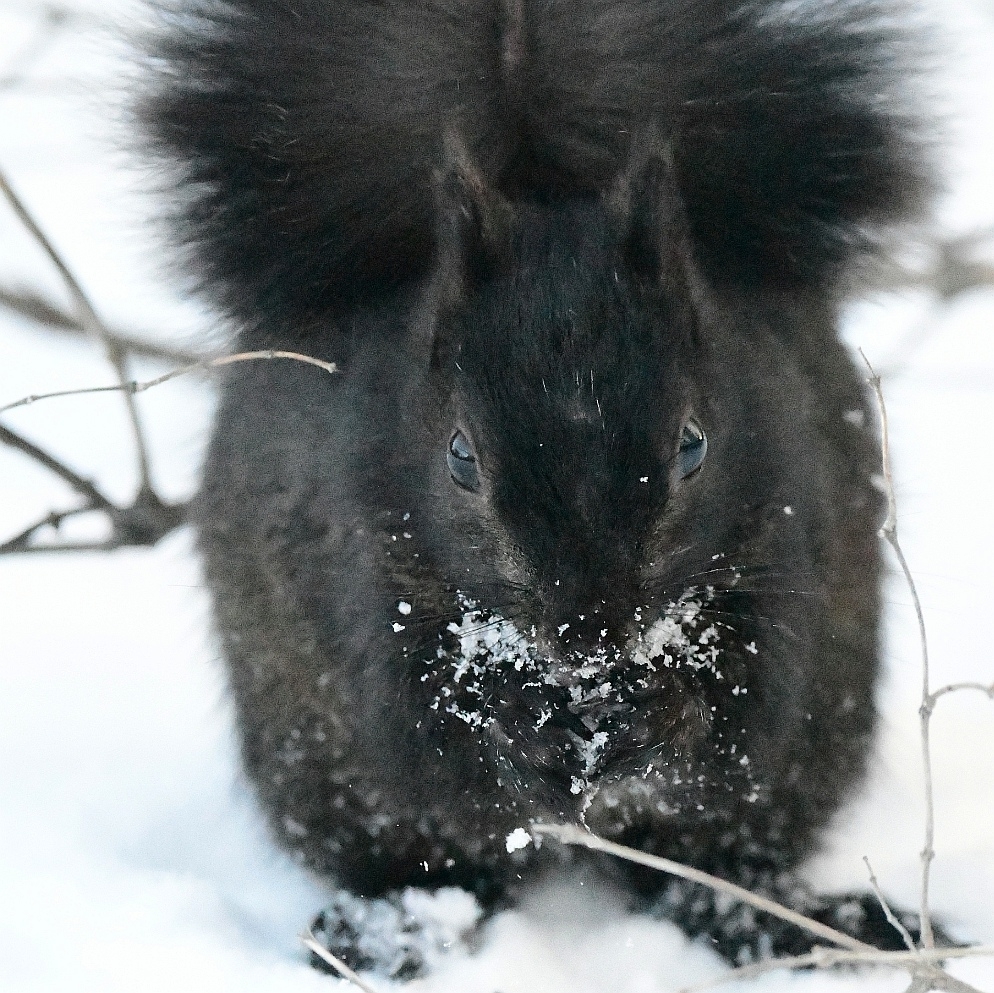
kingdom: Animalia
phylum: Chordata
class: Mammalia
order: Rodentia
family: Sciuridae
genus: Sciurus
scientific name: Sciurus carolinensis
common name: Eastern gray squirrel
